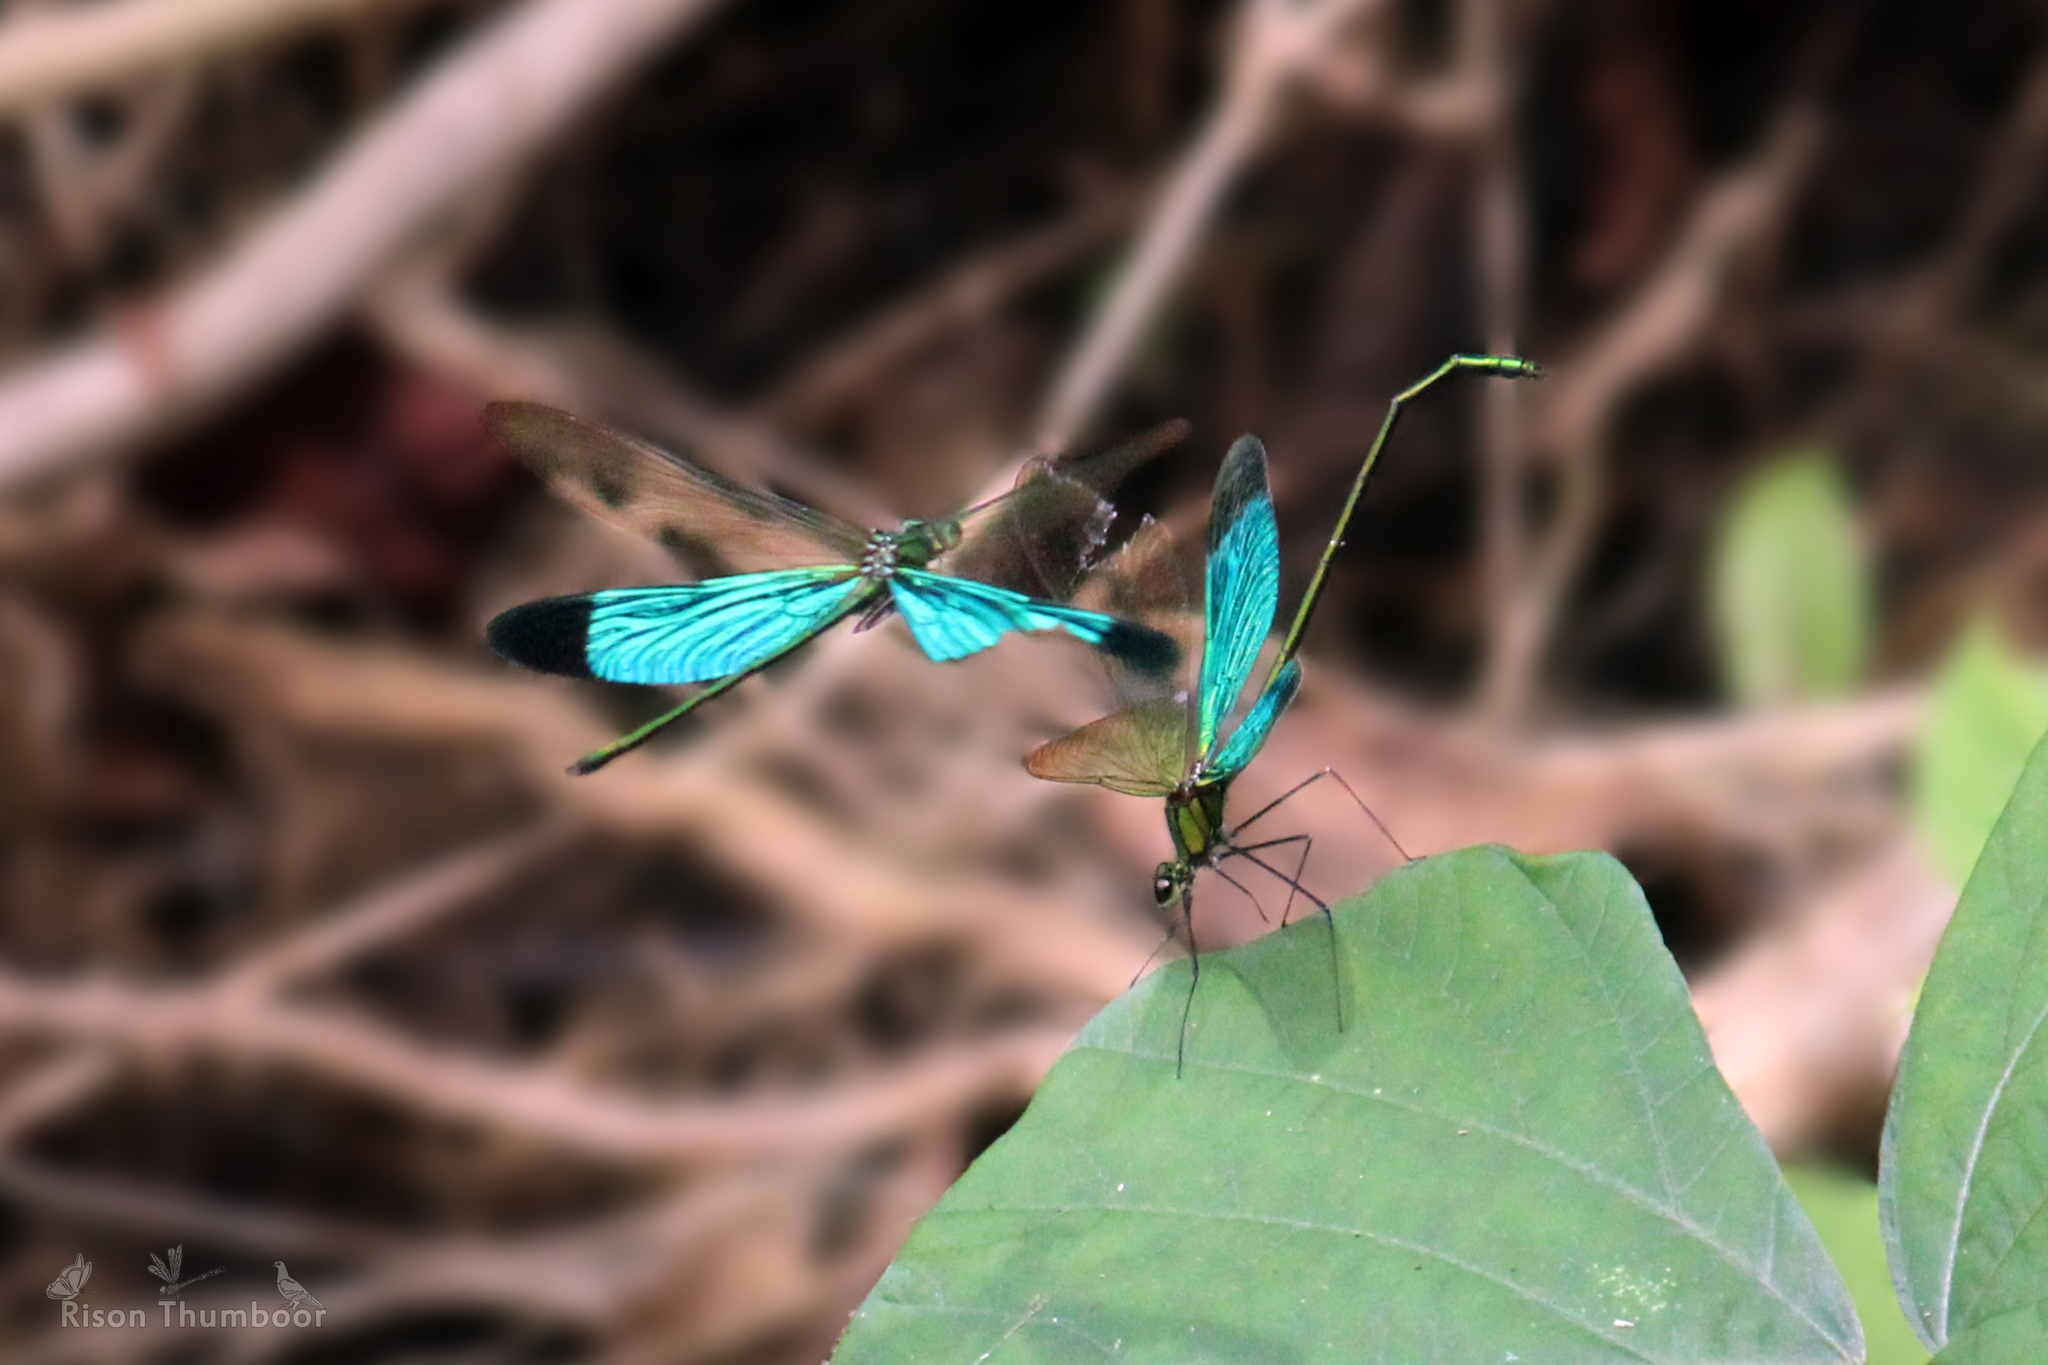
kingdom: Animalia
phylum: Arthropoda
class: Insecta
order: Odonata
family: Calopterygidae
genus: Neurobasis
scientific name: Neurobasis chinensis
